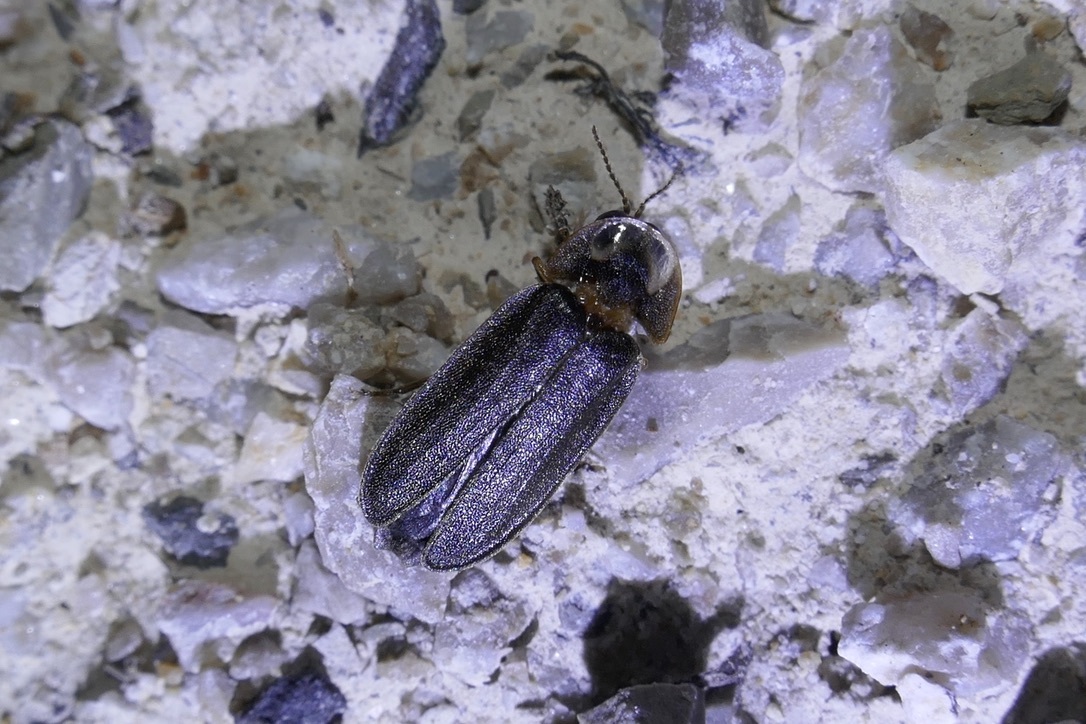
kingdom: Animalia
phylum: Arthropoda
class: Insecta
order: Coleoptera
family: Lampyridae
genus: Lamprohiza
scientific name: Lamprohiza splendidula
